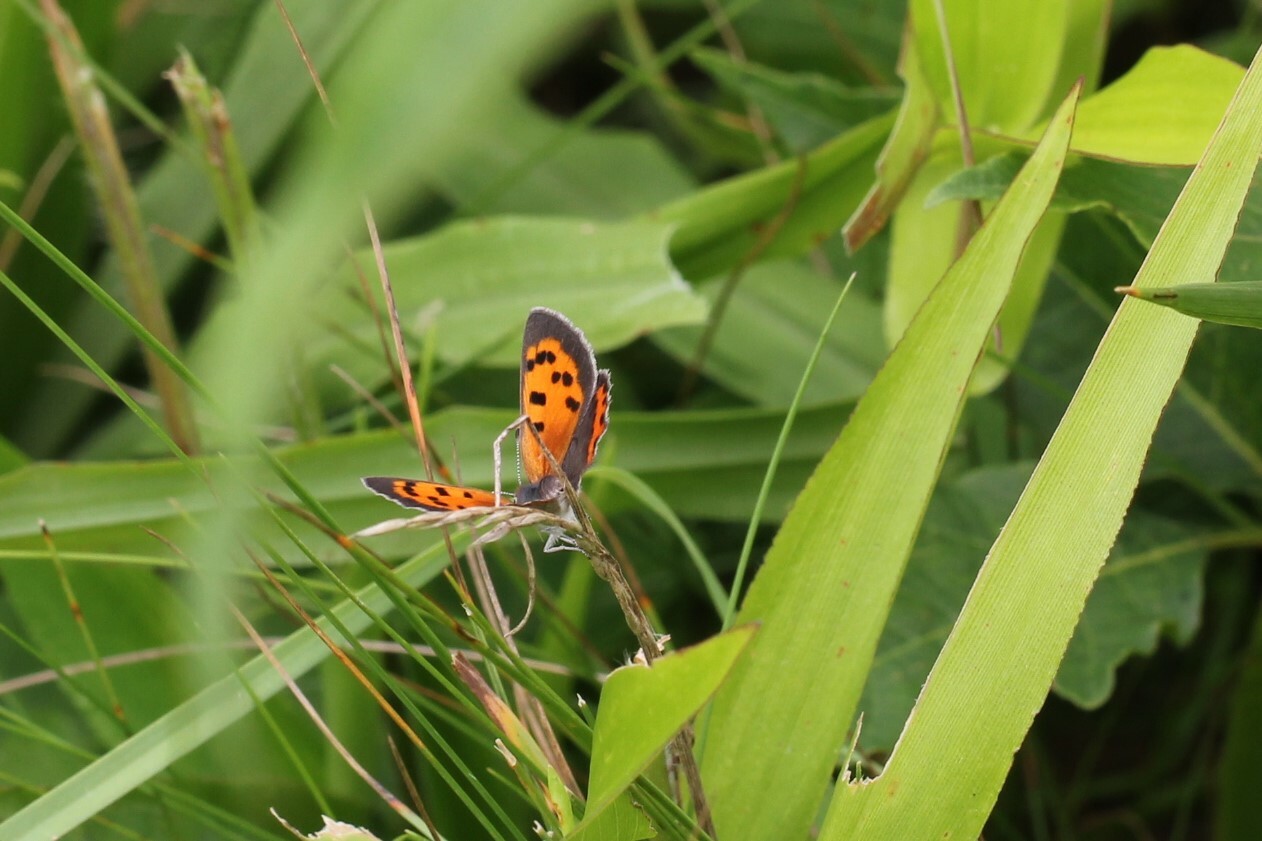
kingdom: Animalia
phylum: Arthropoda
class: Insecta
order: Lepidoptera
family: Lycaenidae
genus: Lycaena
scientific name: Lycaena hypophlaeas
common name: American copper
